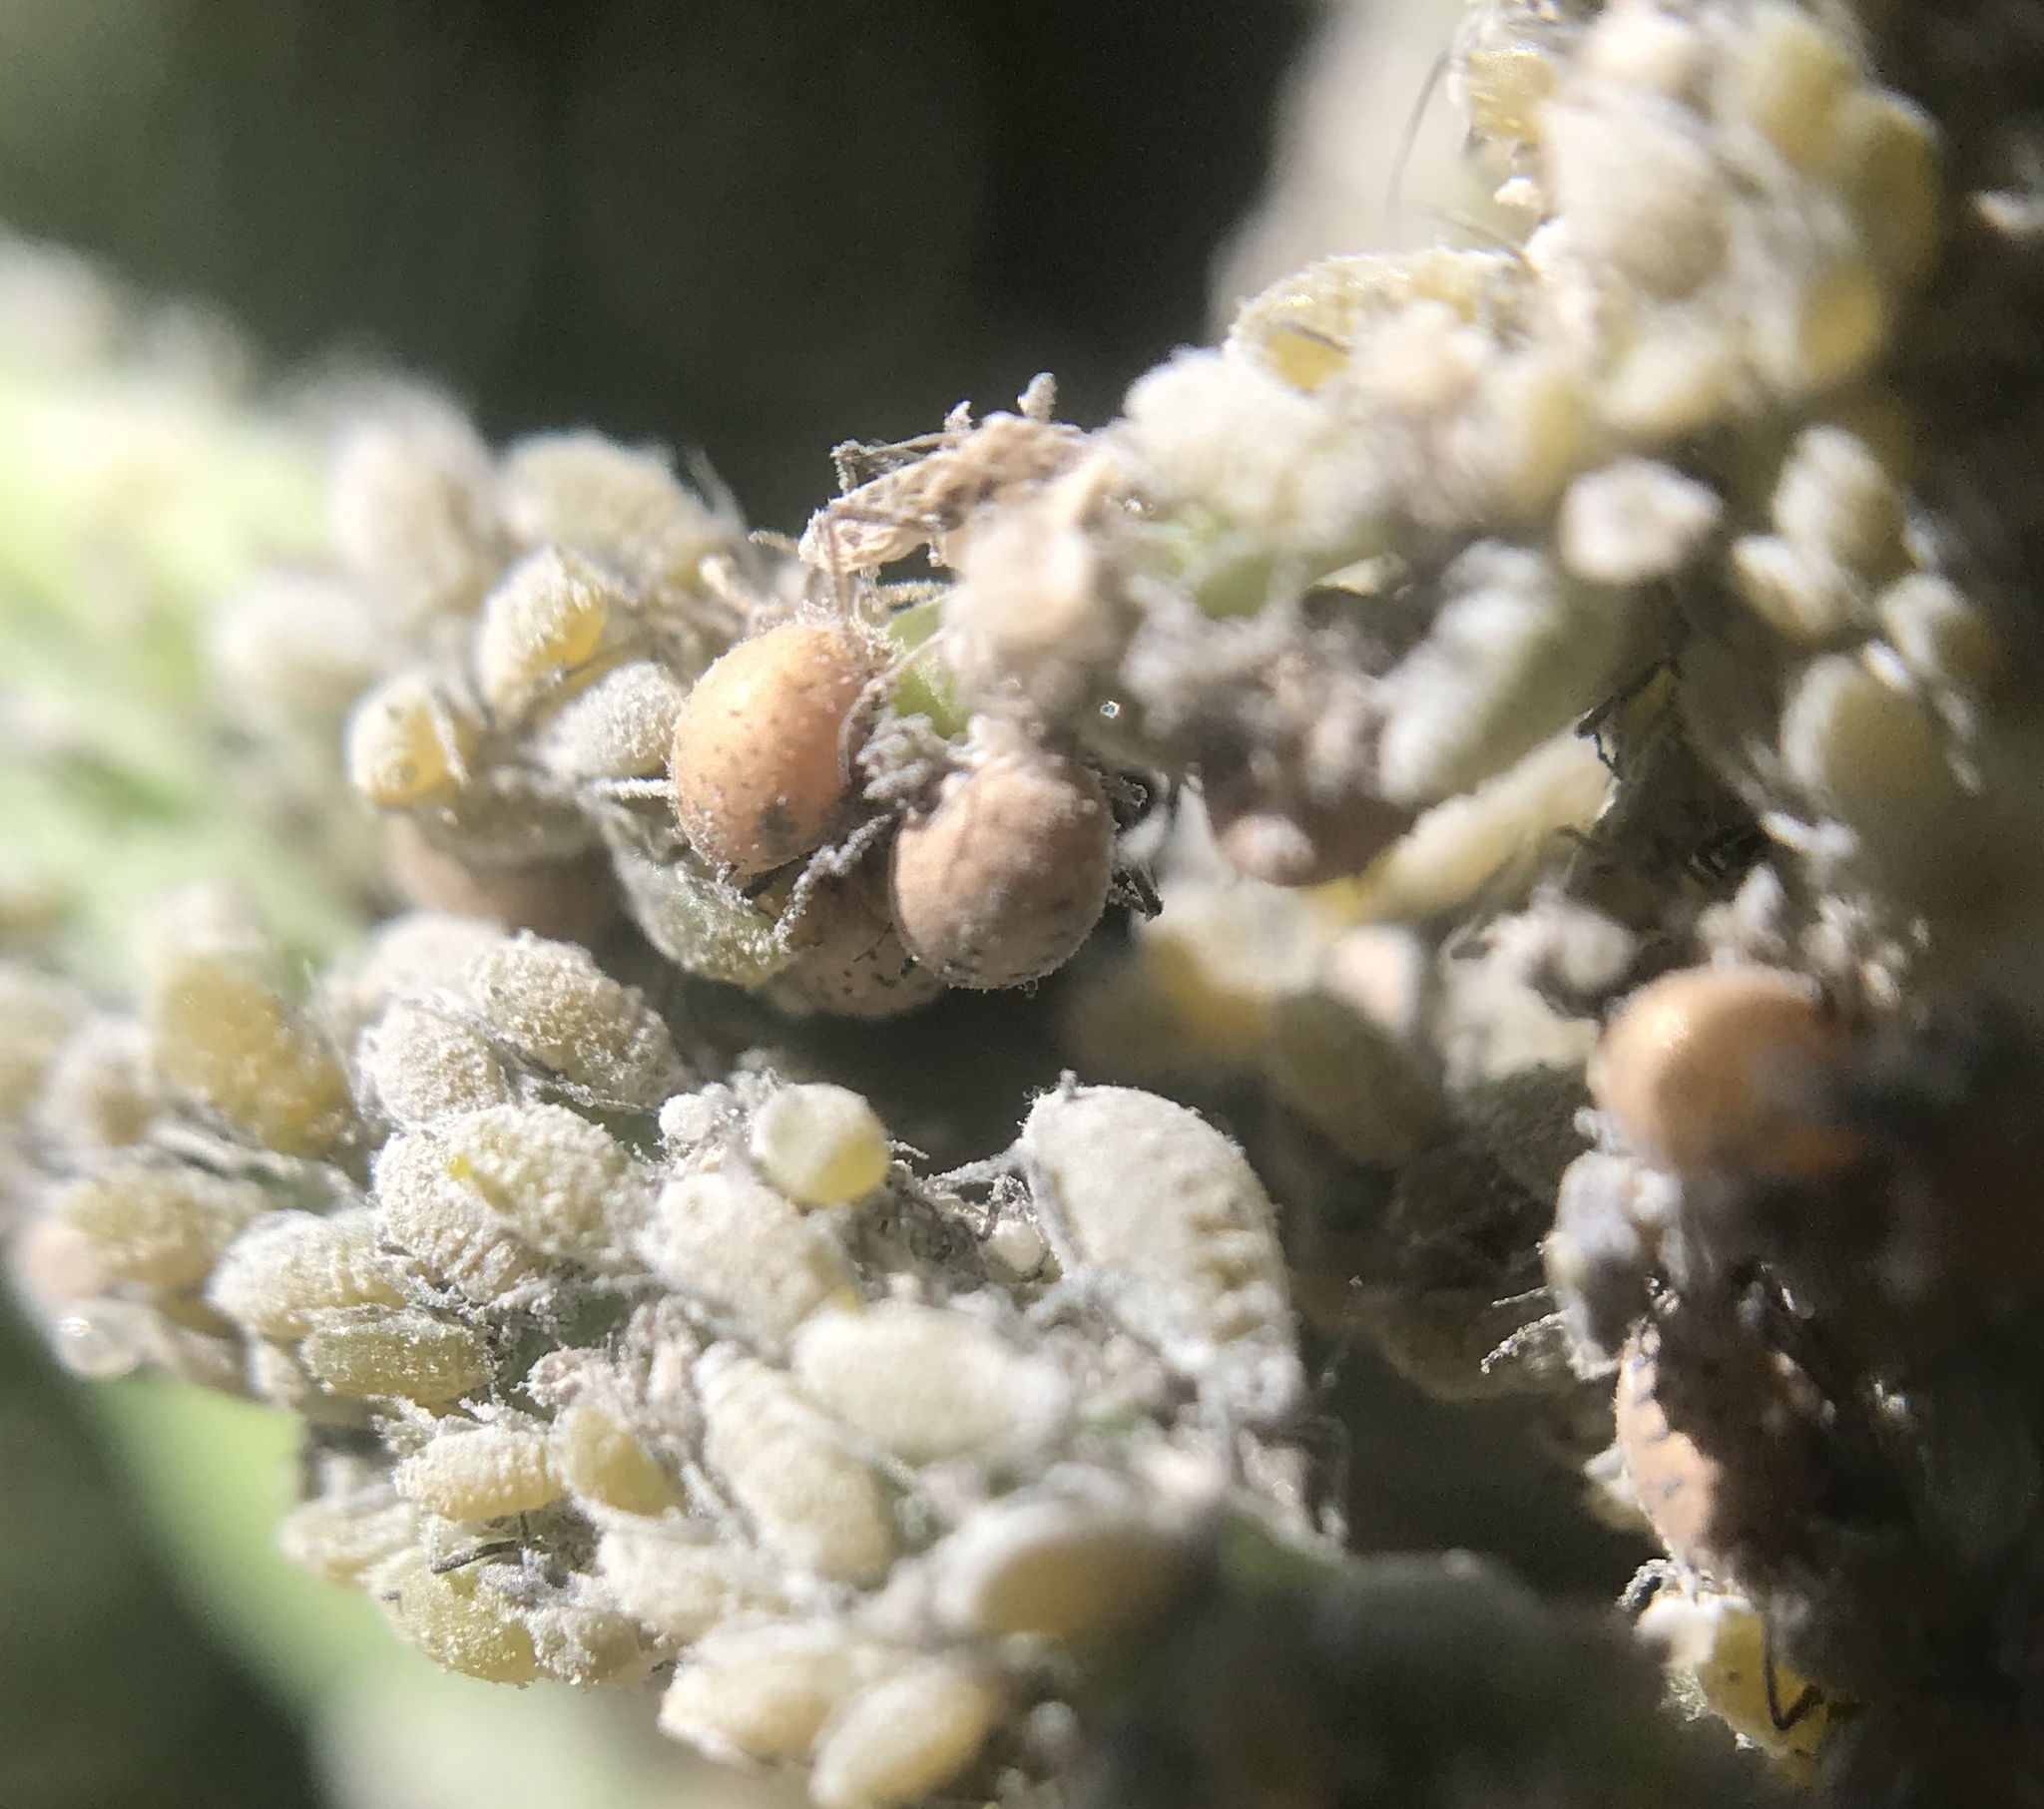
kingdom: Animalia
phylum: Arthropoda
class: Insecta
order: Hemiptera
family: Aphididae
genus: Brevicoryne
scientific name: Brevicoryne brassicae
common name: Cabbage aphid
